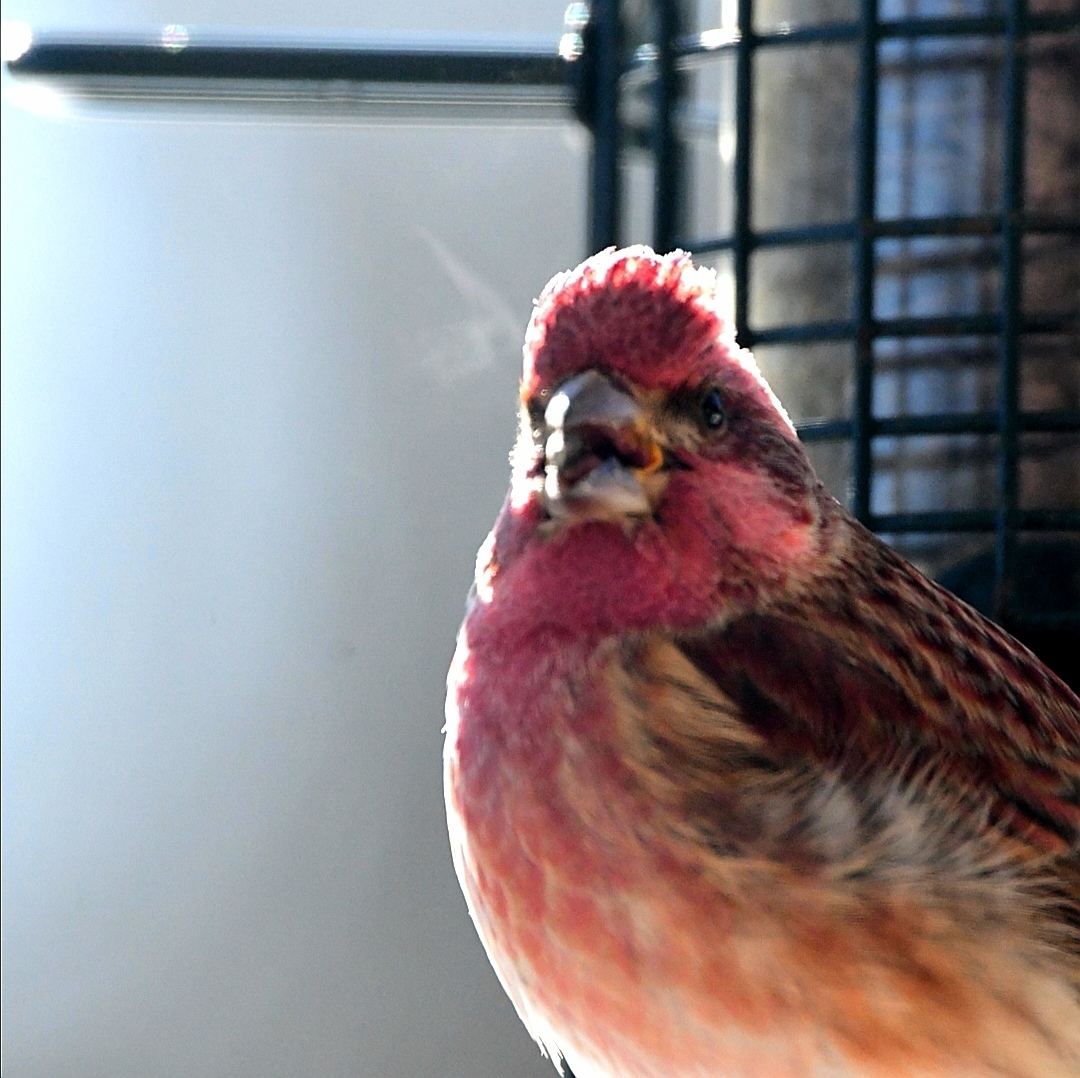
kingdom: Animalia
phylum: Chordata
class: Aves
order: Passeriformes
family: Fringillidae
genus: Haemorhous
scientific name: Haemorhous purpureus
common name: Purple finch
